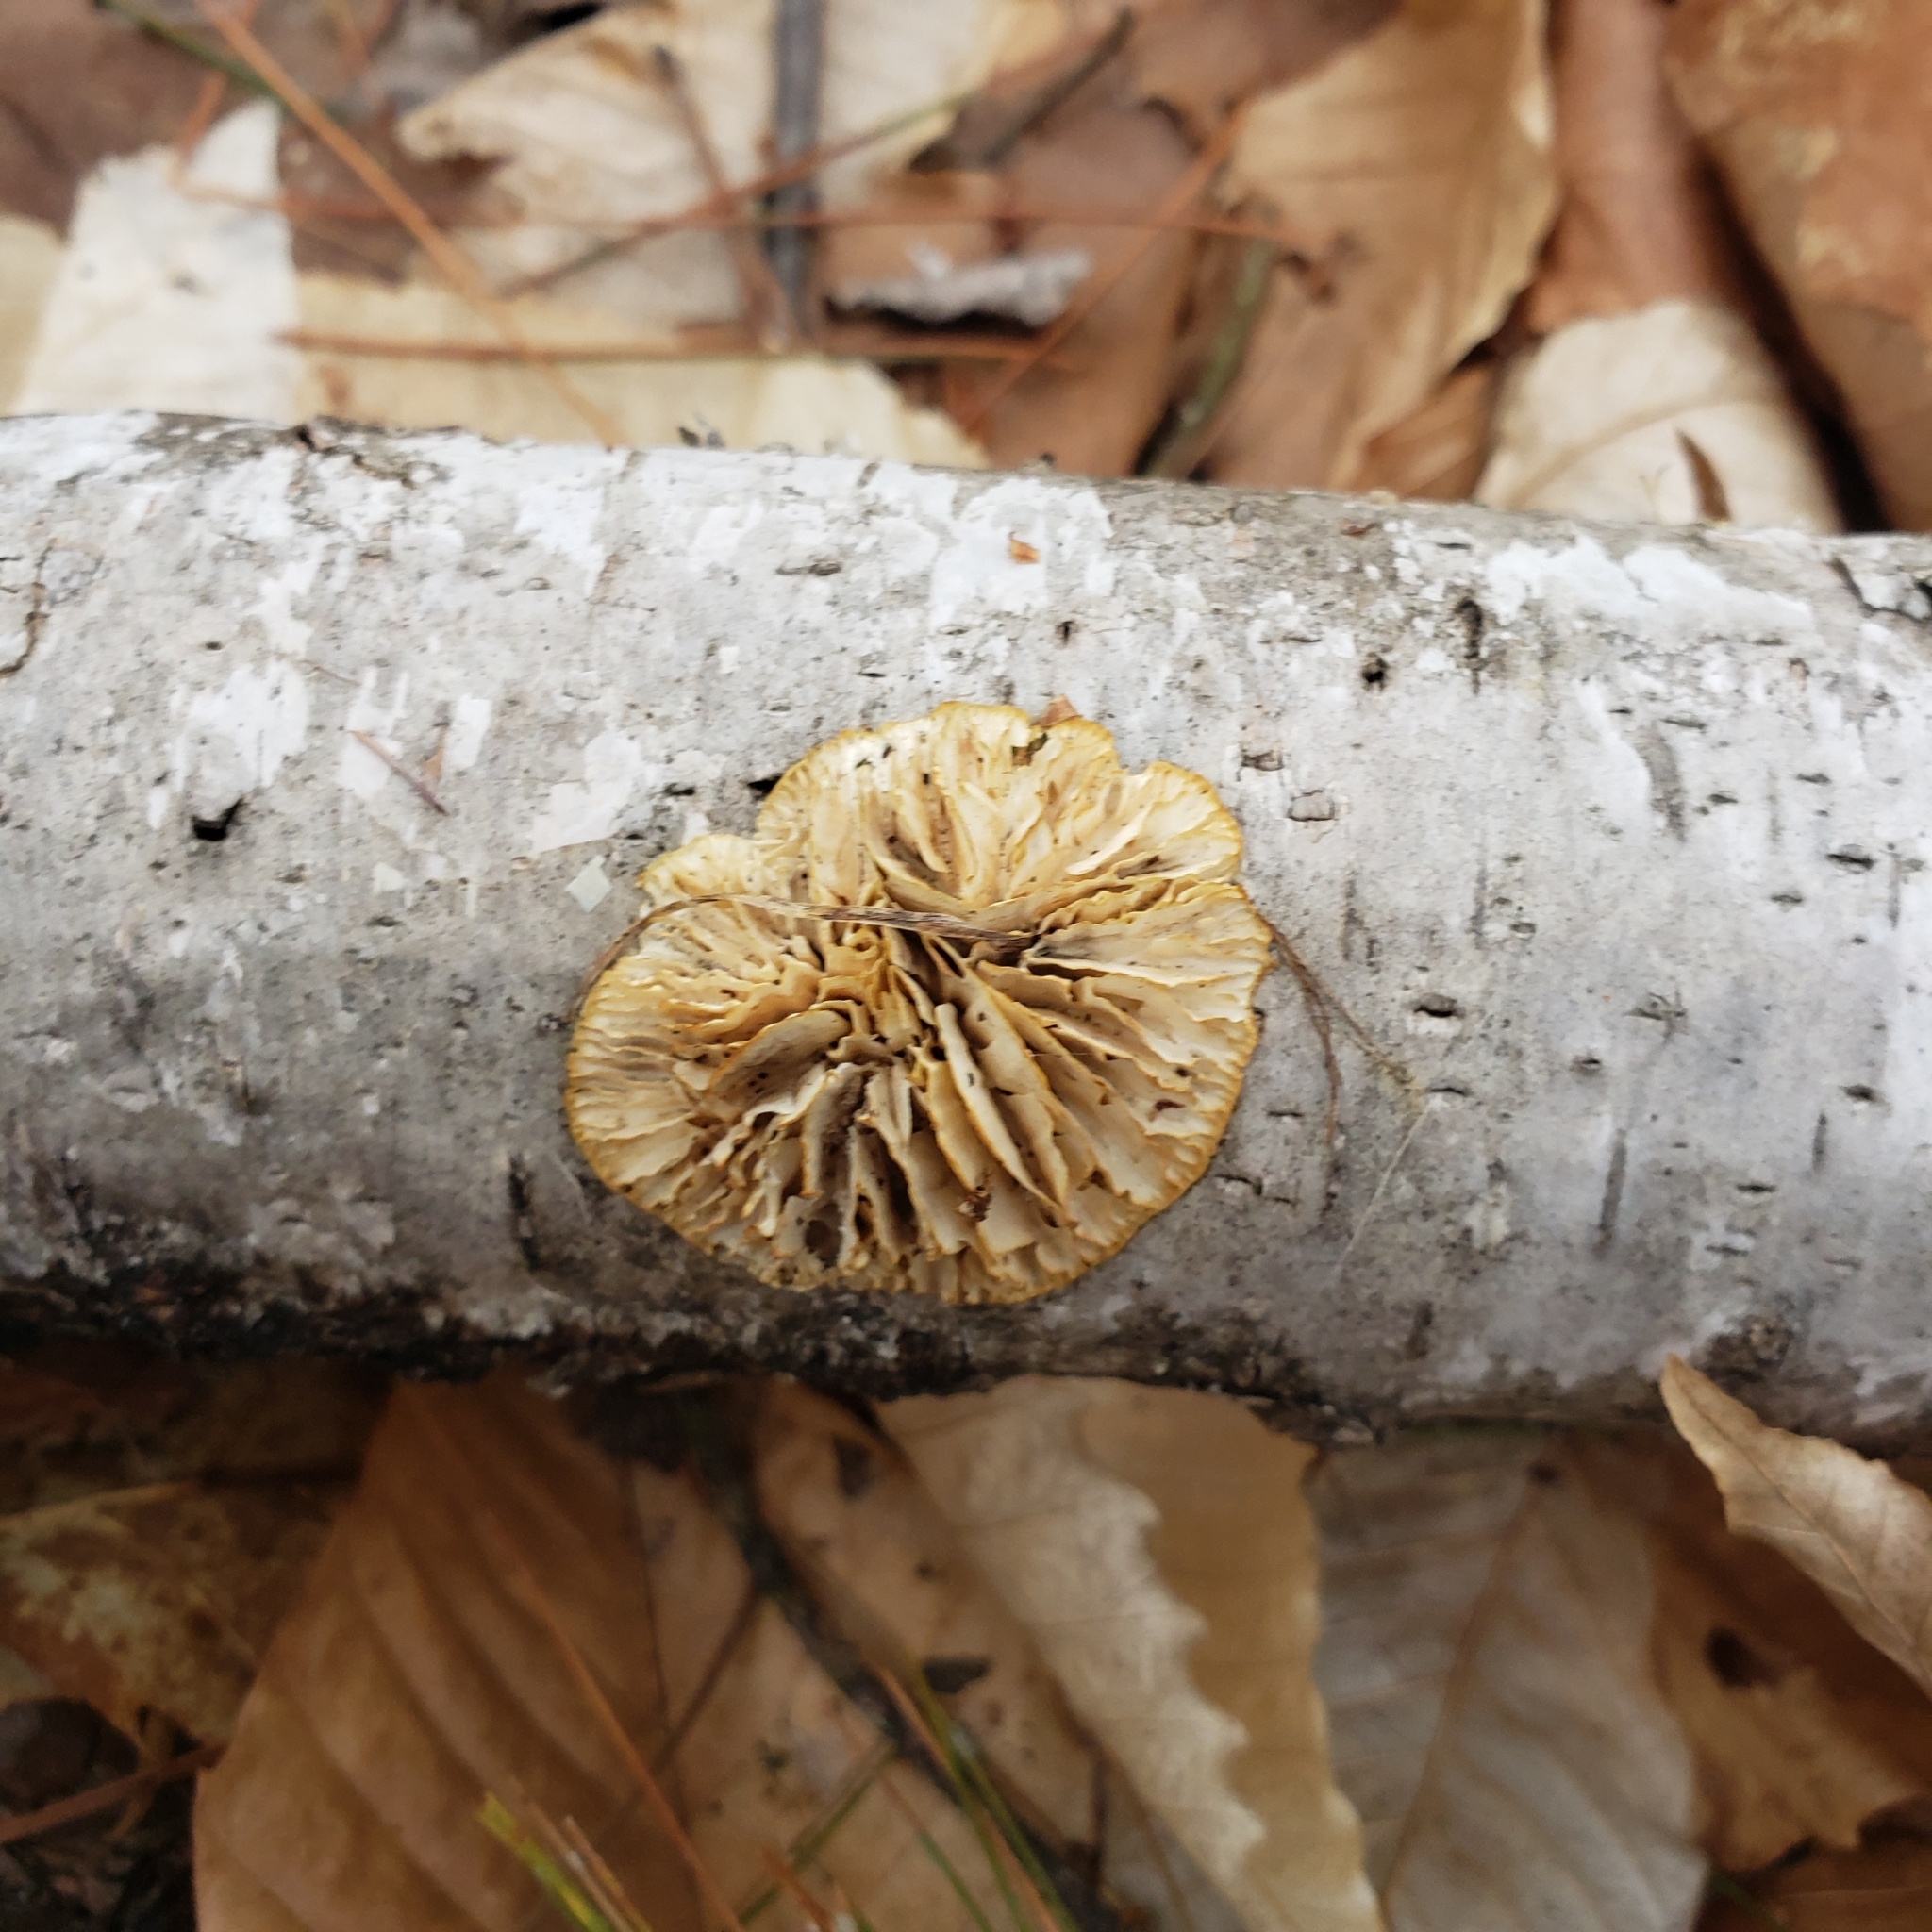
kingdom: Fungi
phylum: Basidiomycota
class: Agaricomycetes
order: Polyporales
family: Polyporaceae
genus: Lenzites
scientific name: Lenzites betulinus
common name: Birch mazegill
